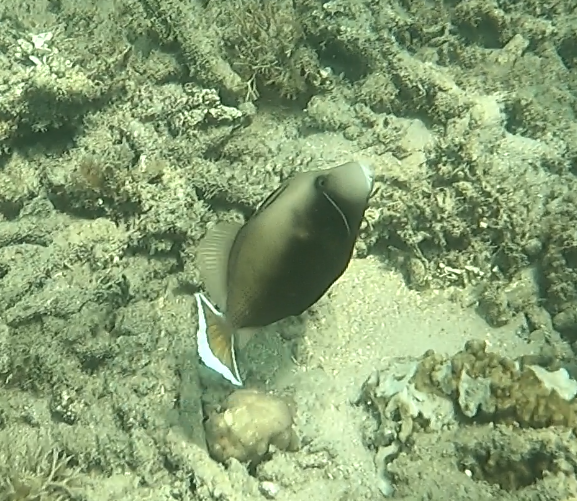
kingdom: Animalia
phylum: Chordata
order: Tetraodontiformes
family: Balistidae
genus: Sufflamen
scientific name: Sufflamen chrysopterum
